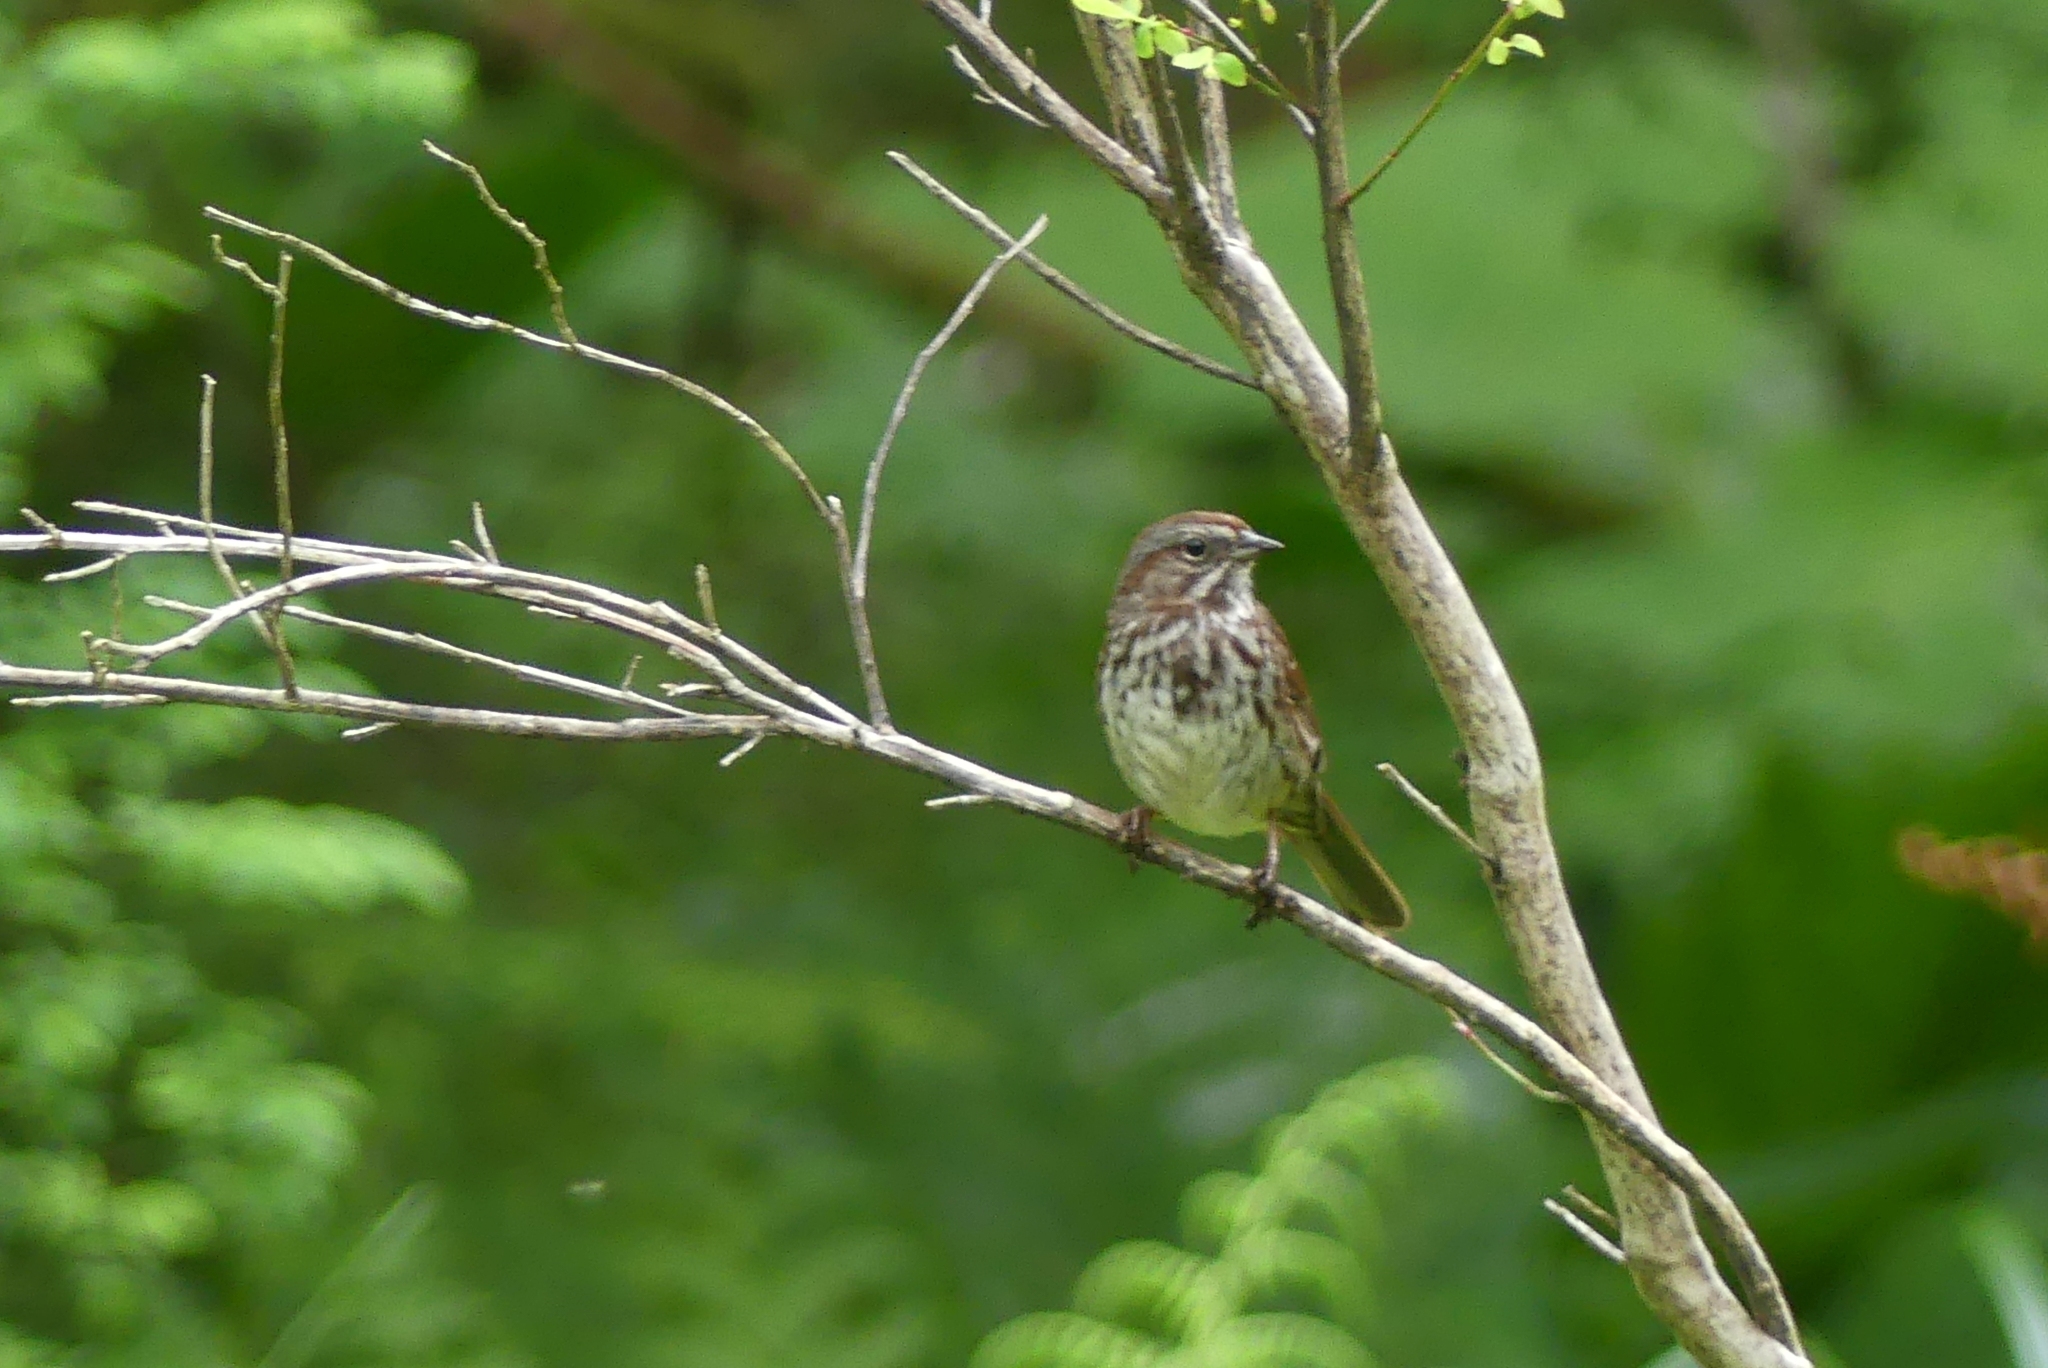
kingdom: Animalia
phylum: Chordata
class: Aves
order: Passeriformes
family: Passerellidae
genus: Melospiza
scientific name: Melospiza melodia
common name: Song sparrow
